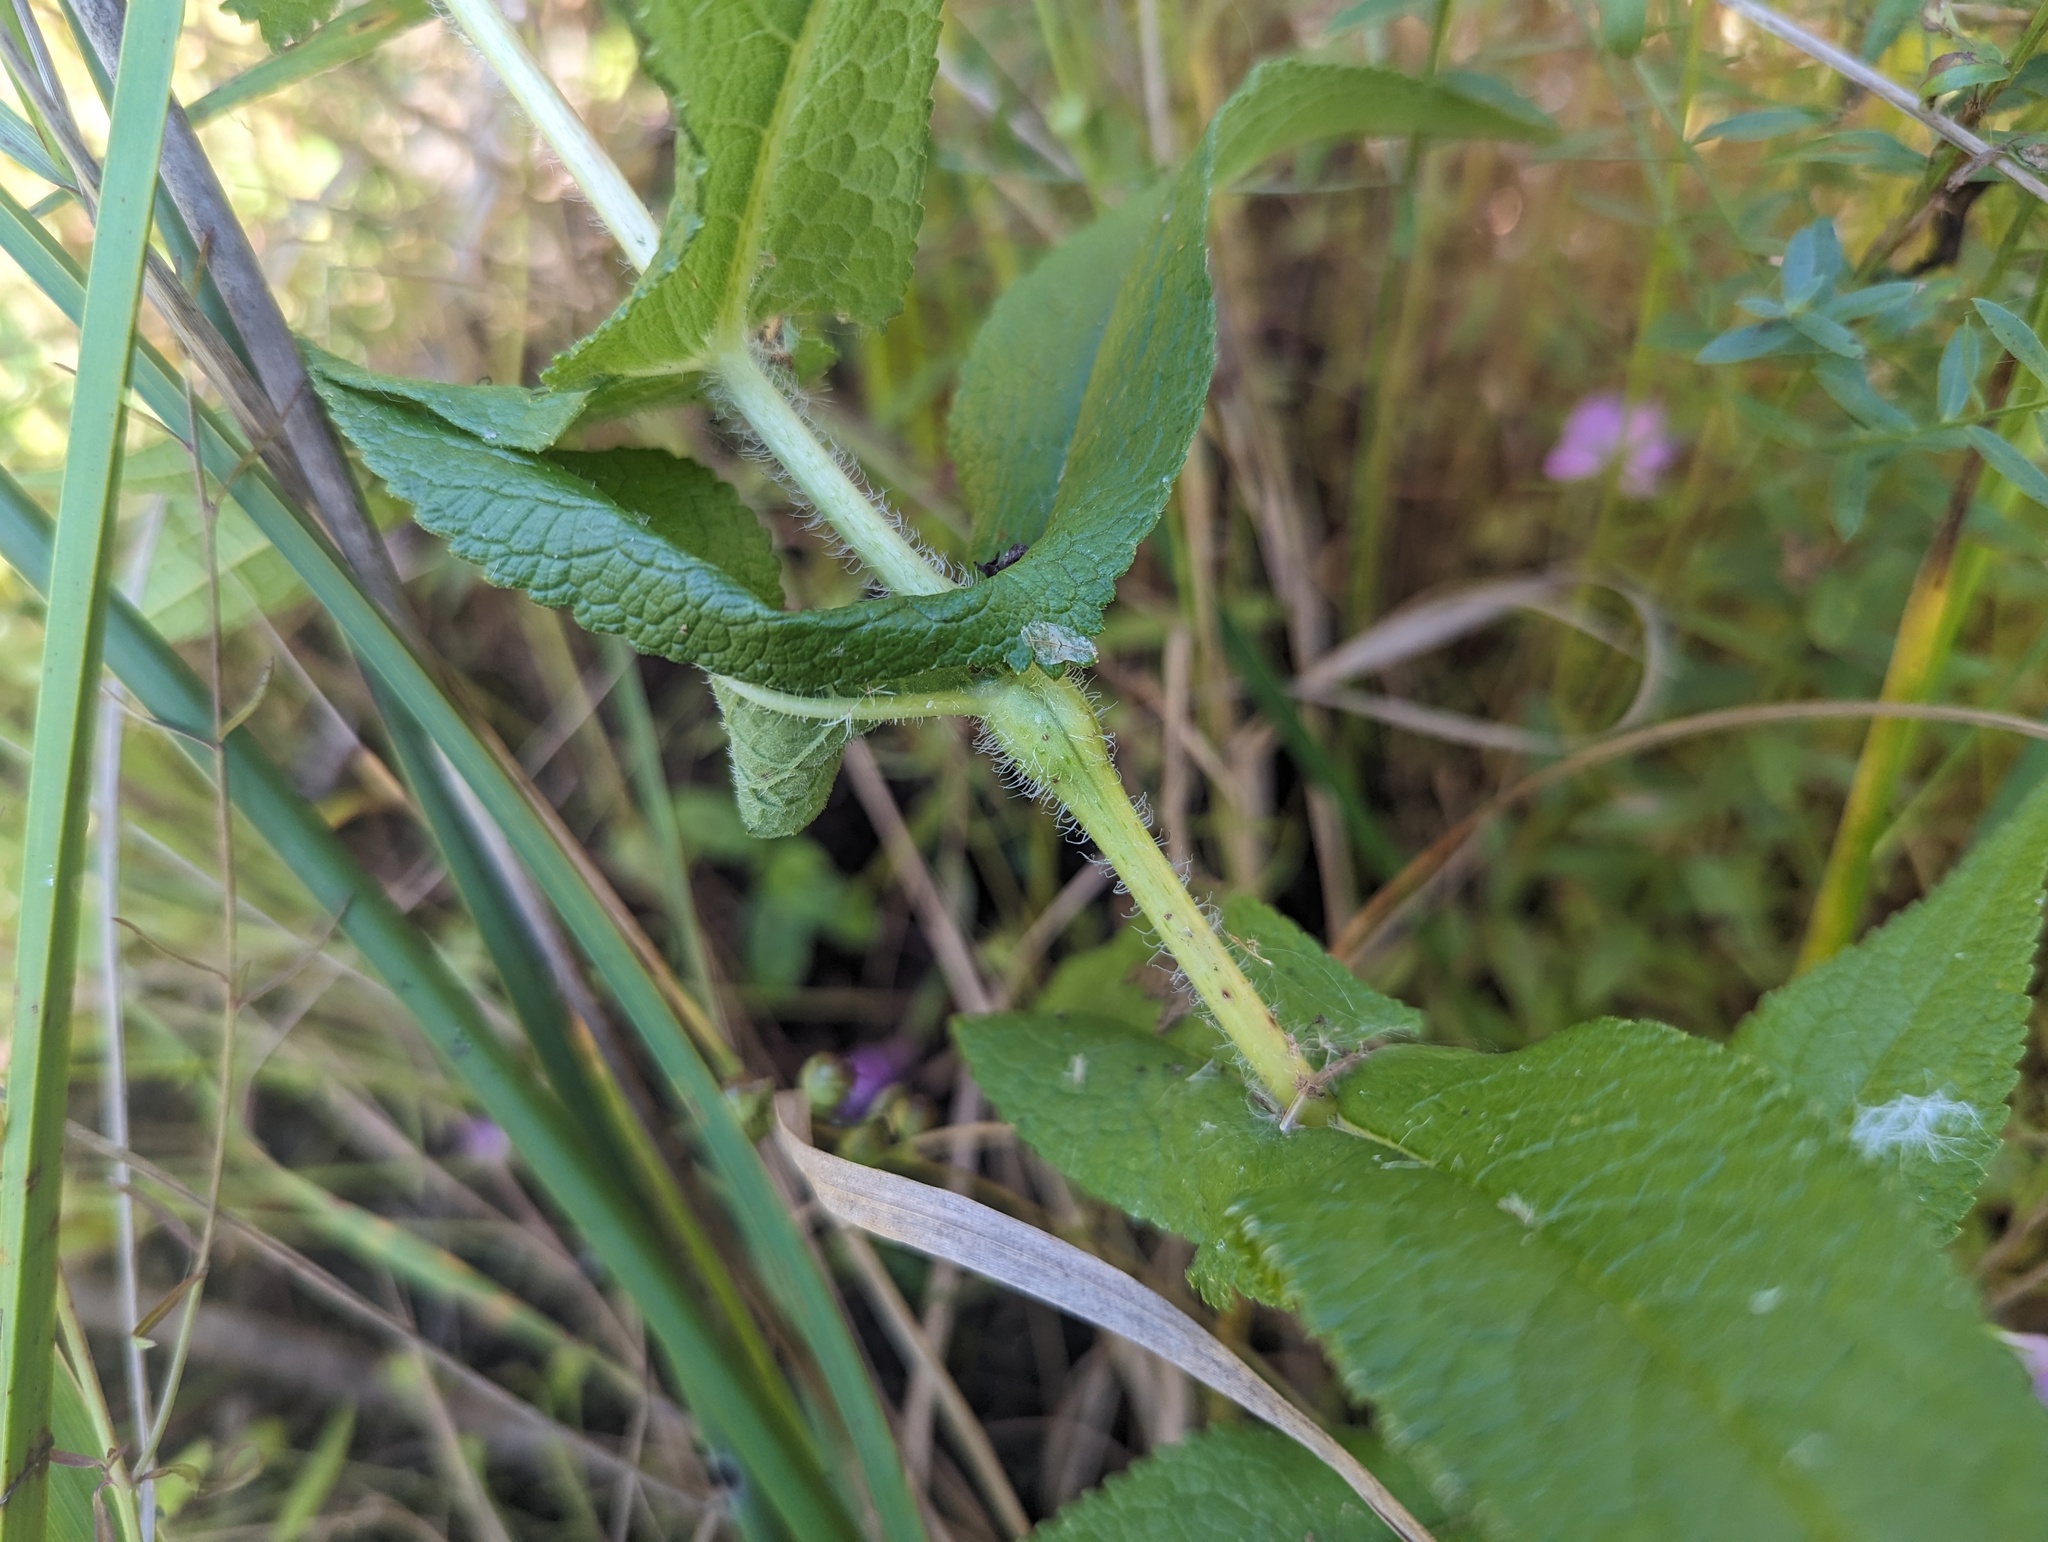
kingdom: Animalia
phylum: Arthropoda
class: Insecta
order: Diptera
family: Cecidomyiidae
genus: Neolasioptera
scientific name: Neolasioptera perfoliata
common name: Boneset stem midge
